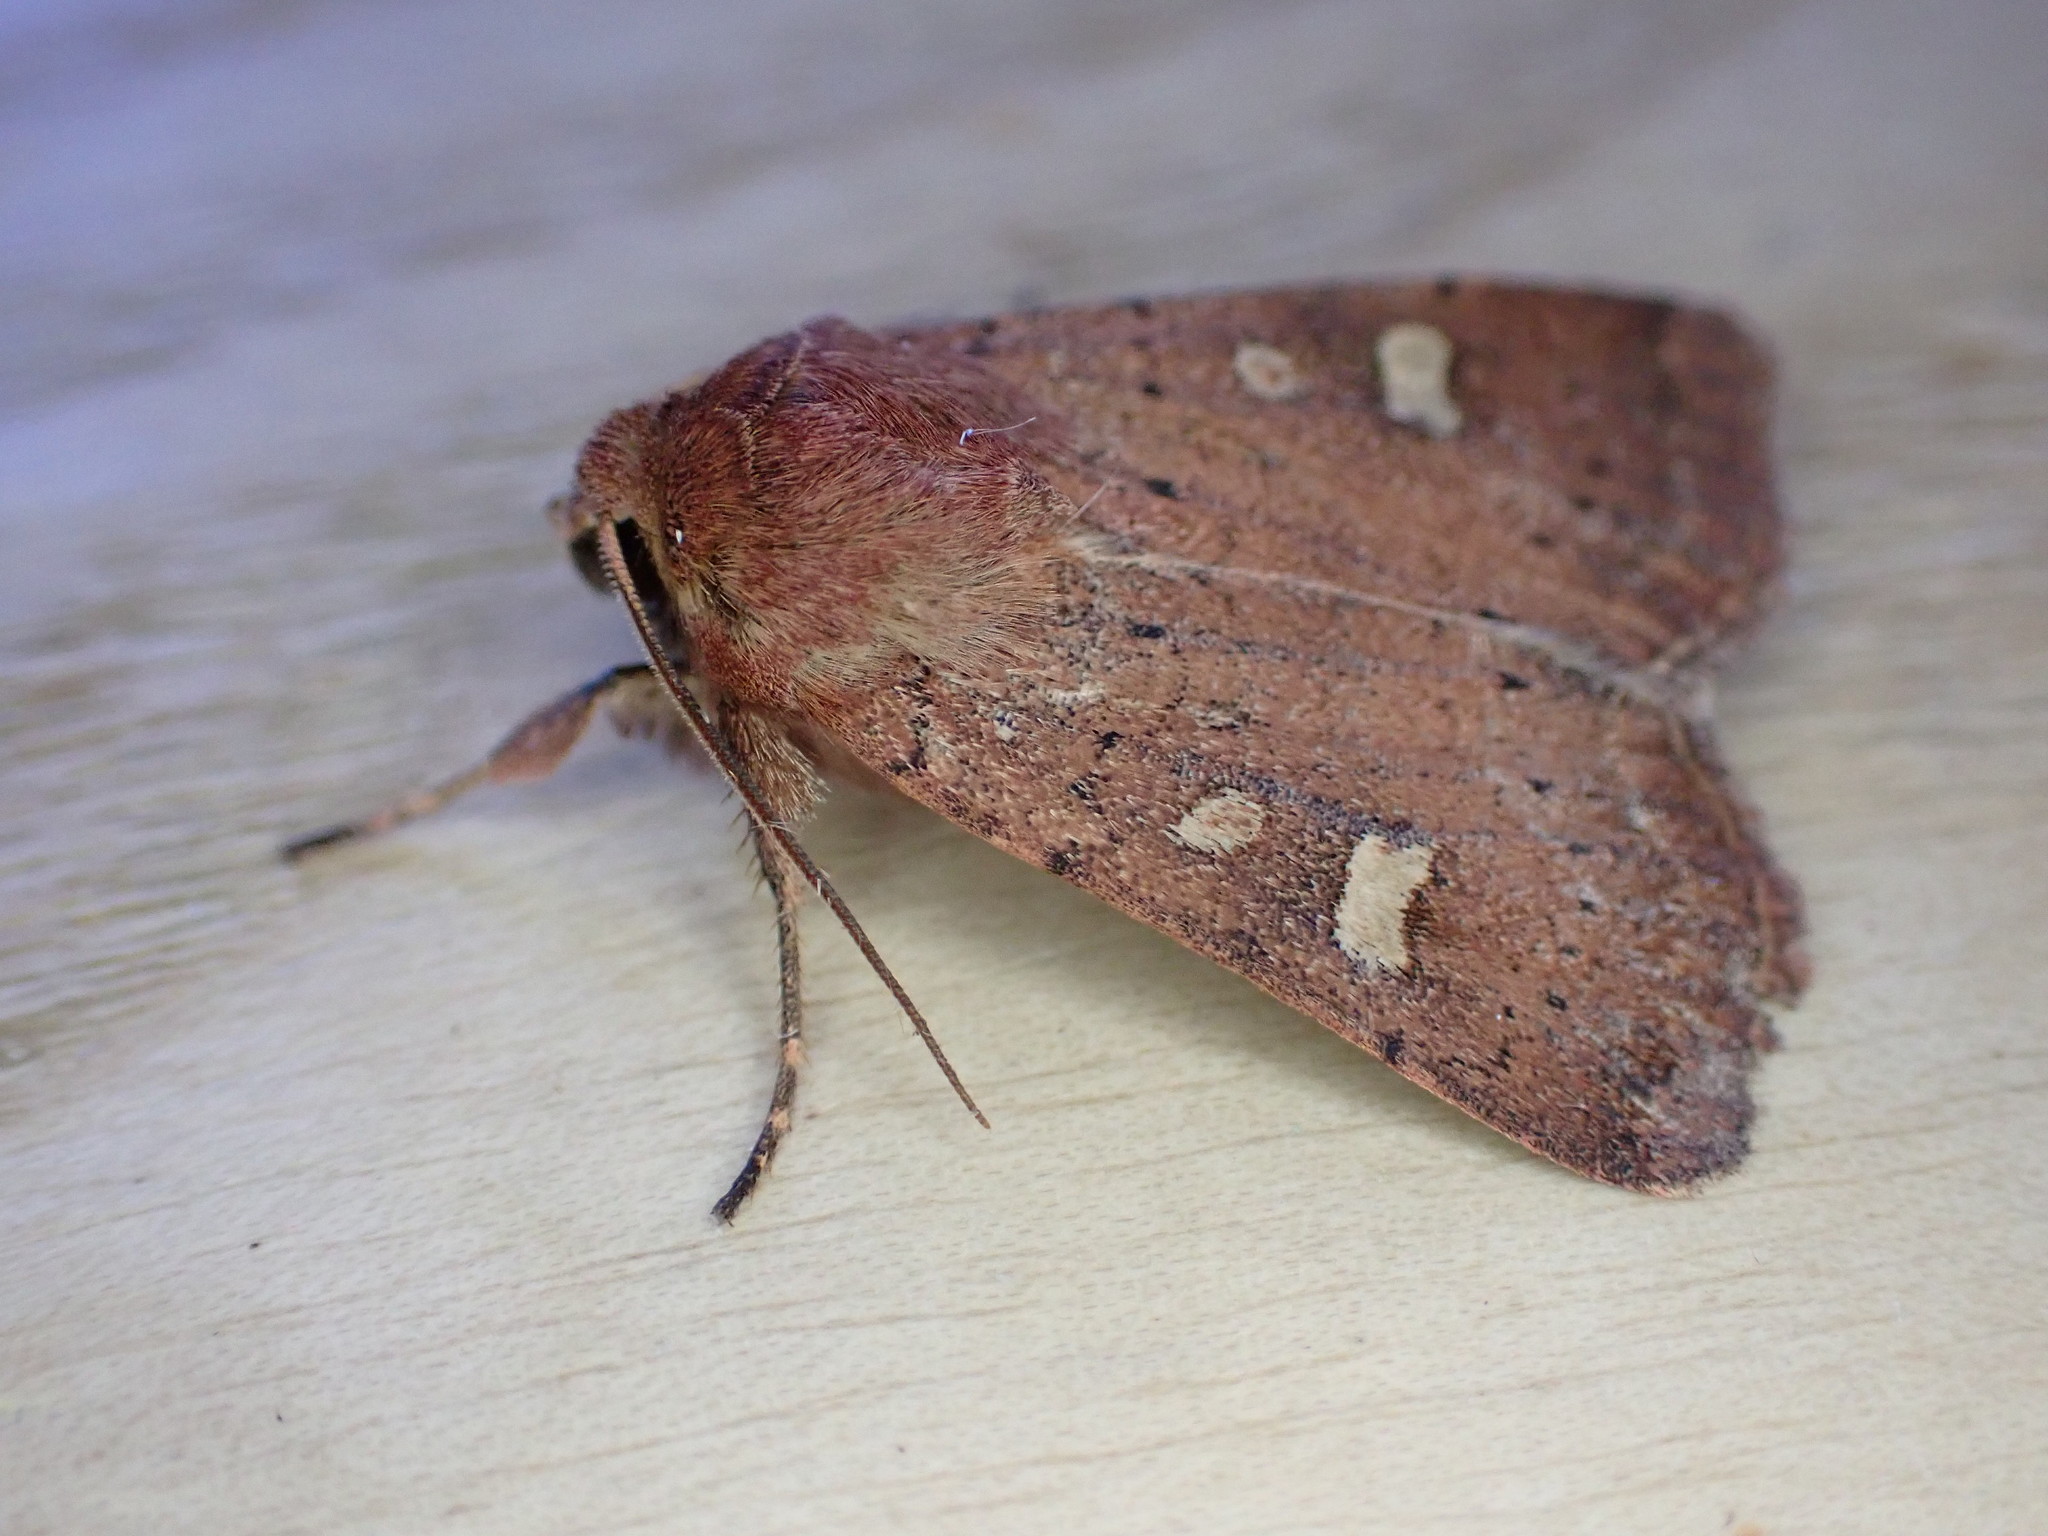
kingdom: Animalia
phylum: Arthropoda
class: Insecta
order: Lepidoptera
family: Noctuidae
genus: Xestia
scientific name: Xestia xanthographa
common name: Square-spot rustic
